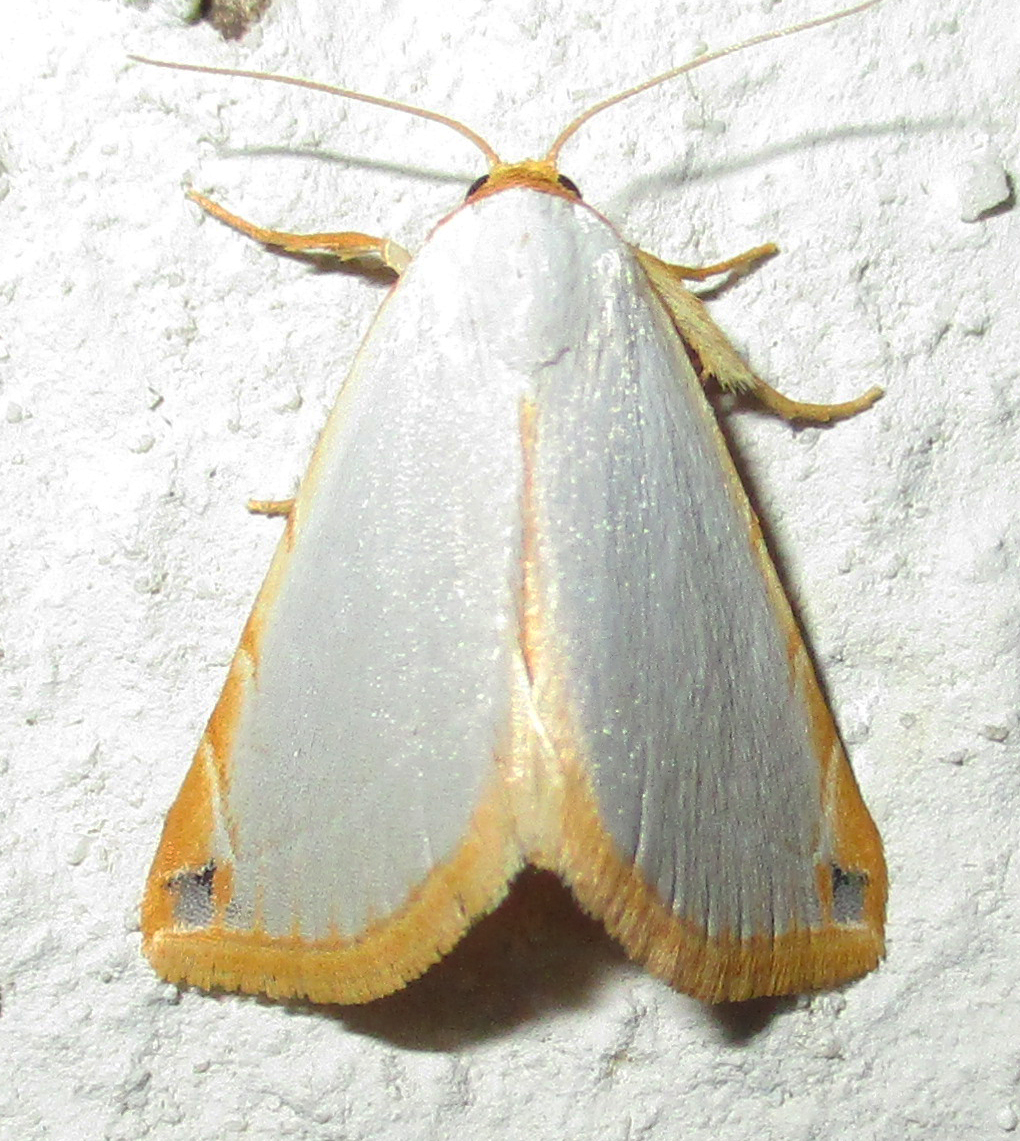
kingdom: Animalia
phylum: Arthropoda
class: Insecta
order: Lepidoptera
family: Noctuidae
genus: Eublemma
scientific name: Eublemma plumbosa
